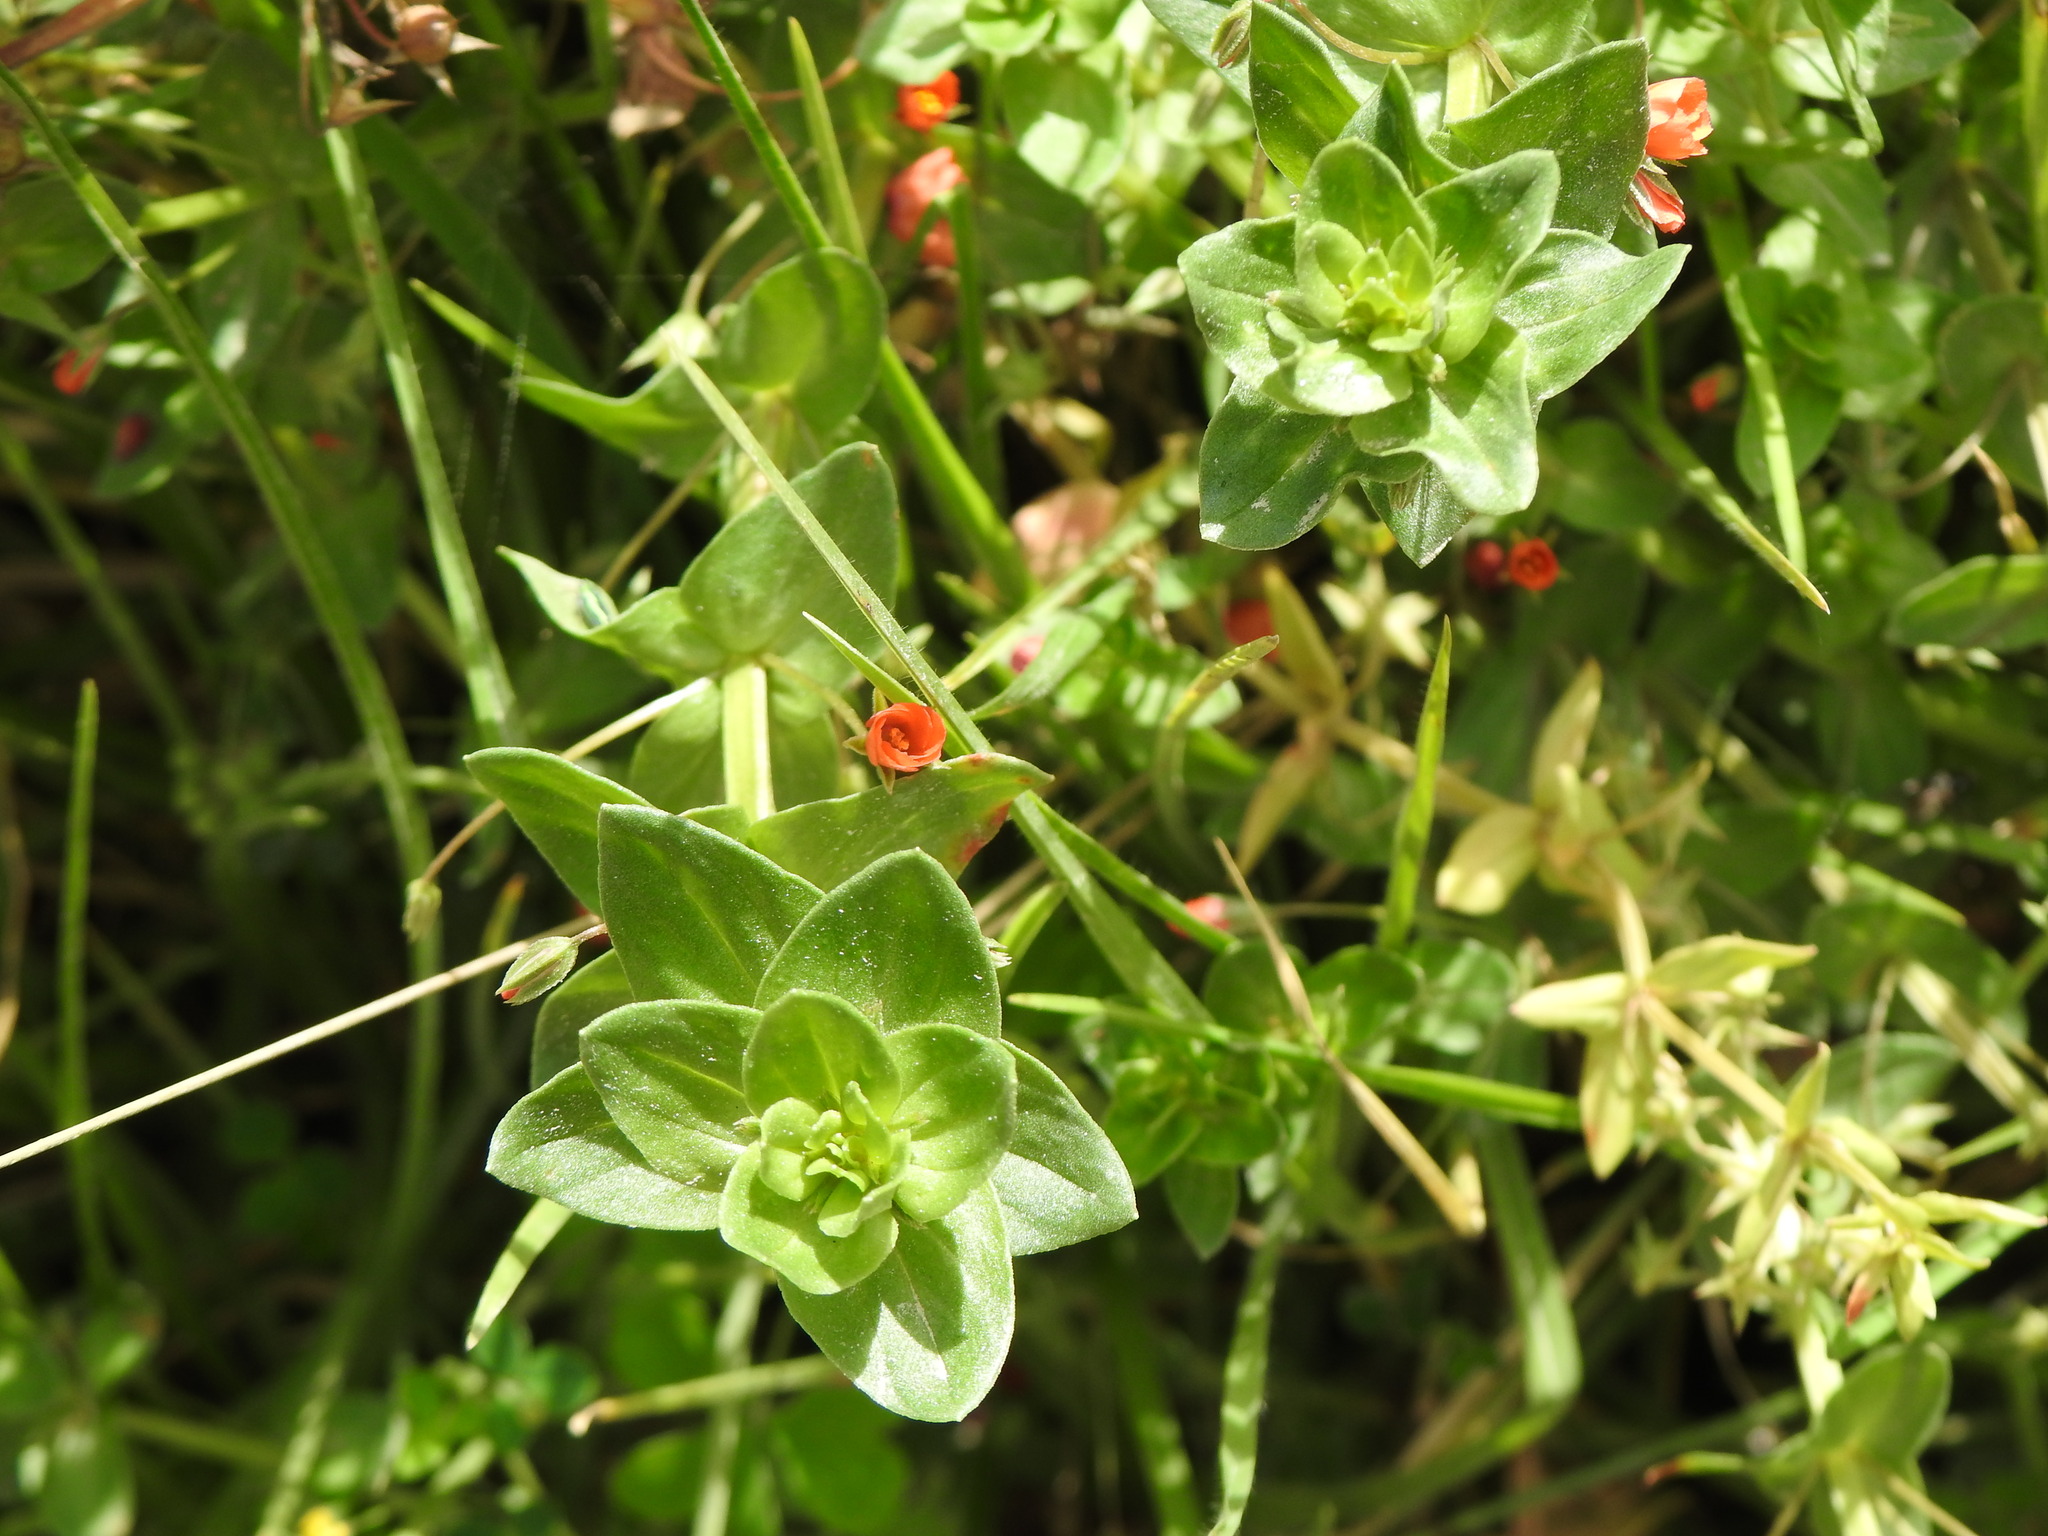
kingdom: Plantae
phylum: Tracheophyta
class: Magnoliopsida
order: Ericales
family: Primulaceae
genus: Lysimachia
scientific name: Lysimachia arvensis
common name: Scarlet pimpernel
